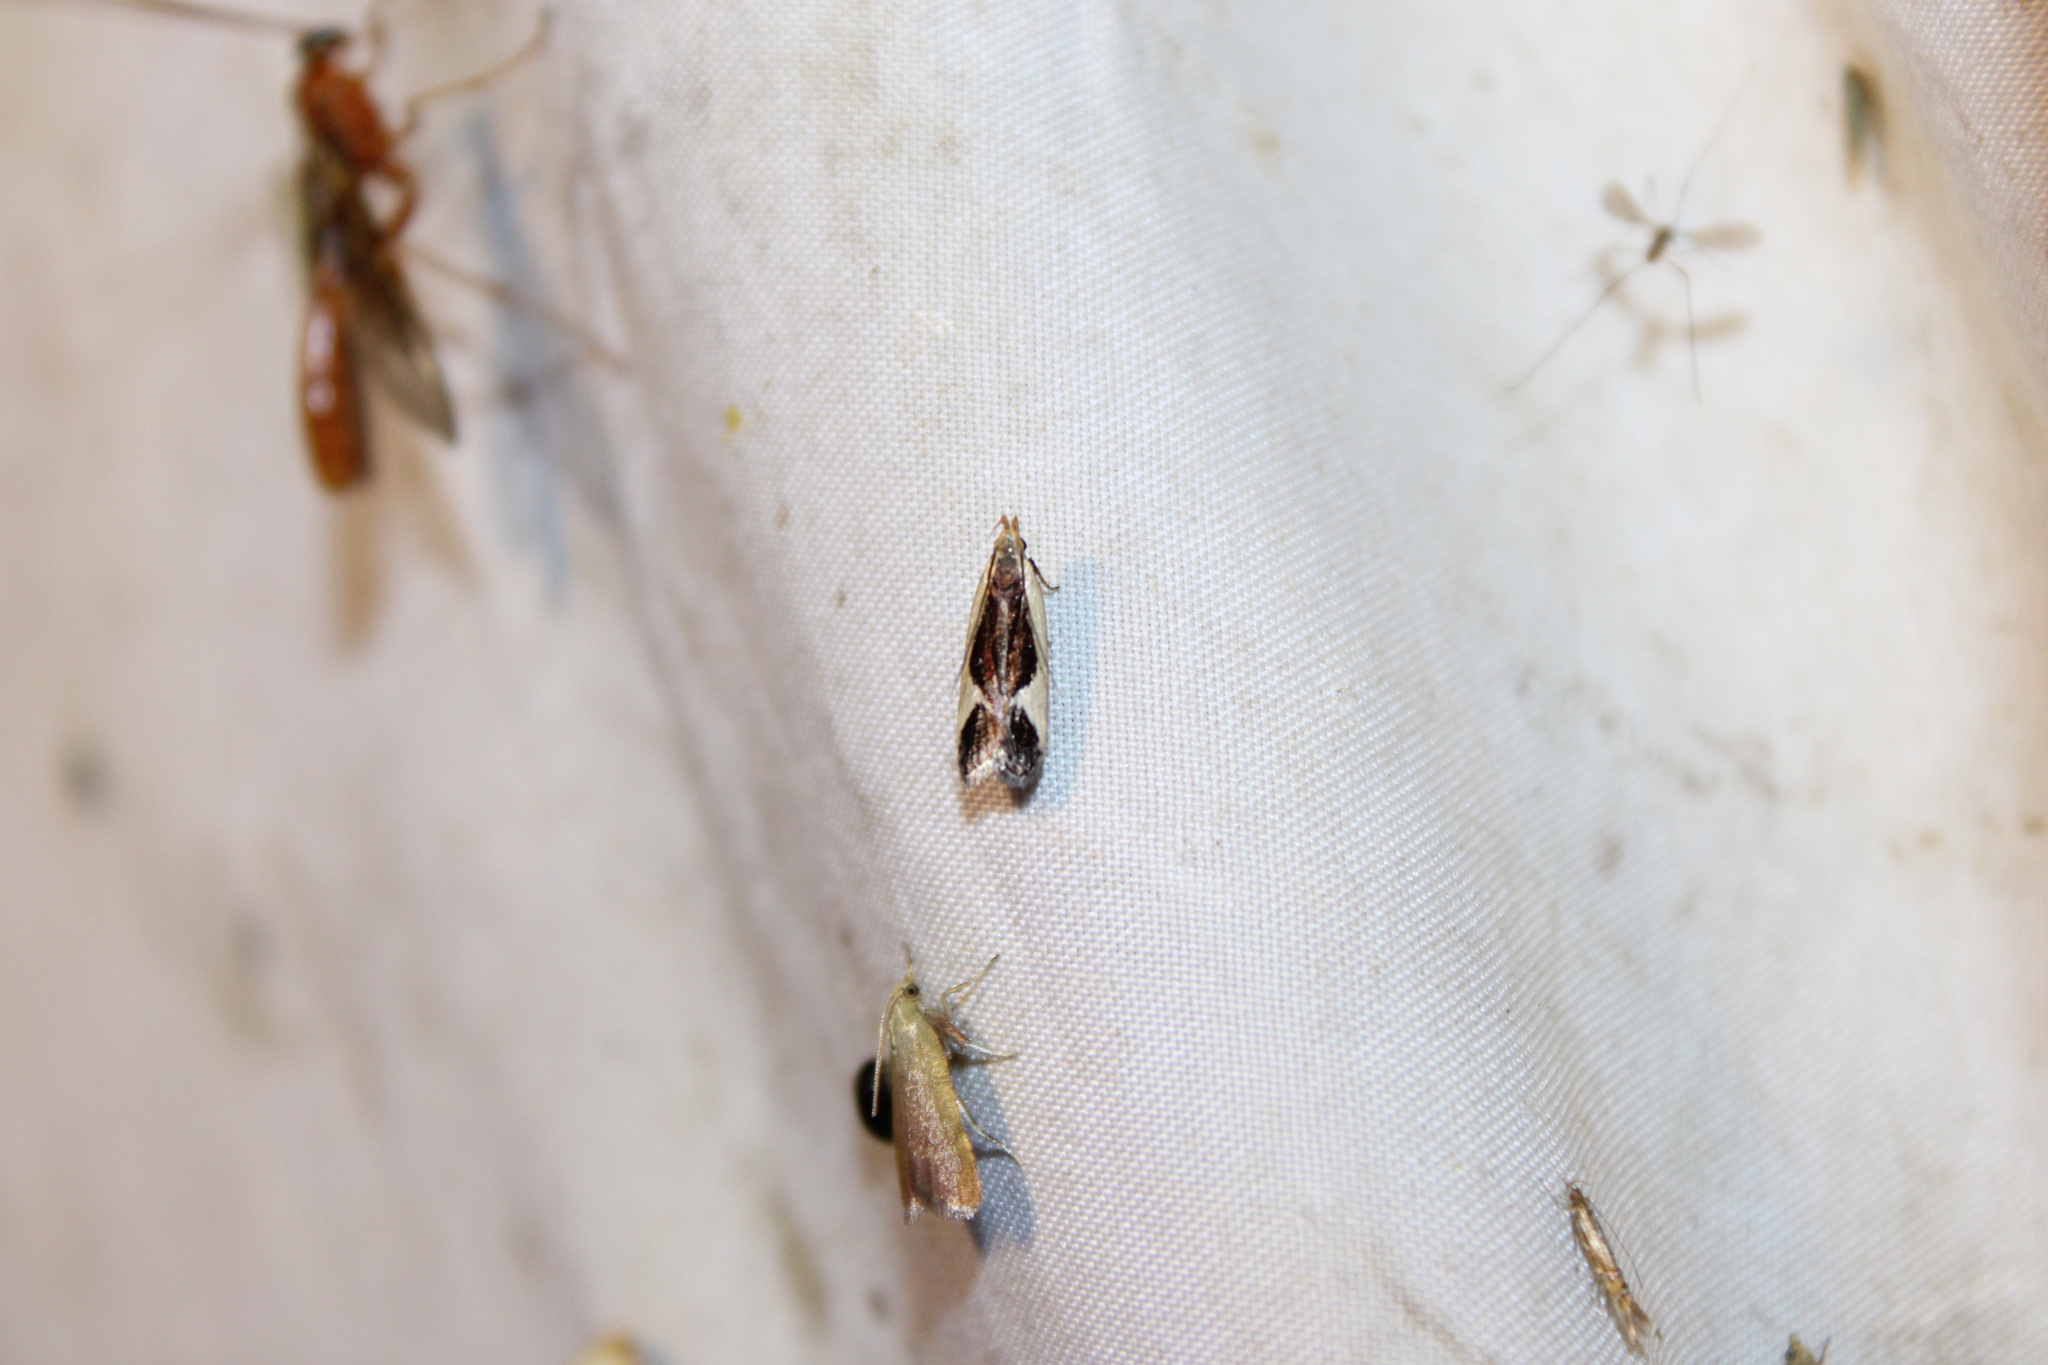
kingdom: Animalia
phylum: Arthropoda
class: Insecta
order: Lepidoptera
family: Gelechiidae
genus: Dichomeris
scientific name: Dichomeris flavocostella
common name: Cream-edged dichomeris moth
